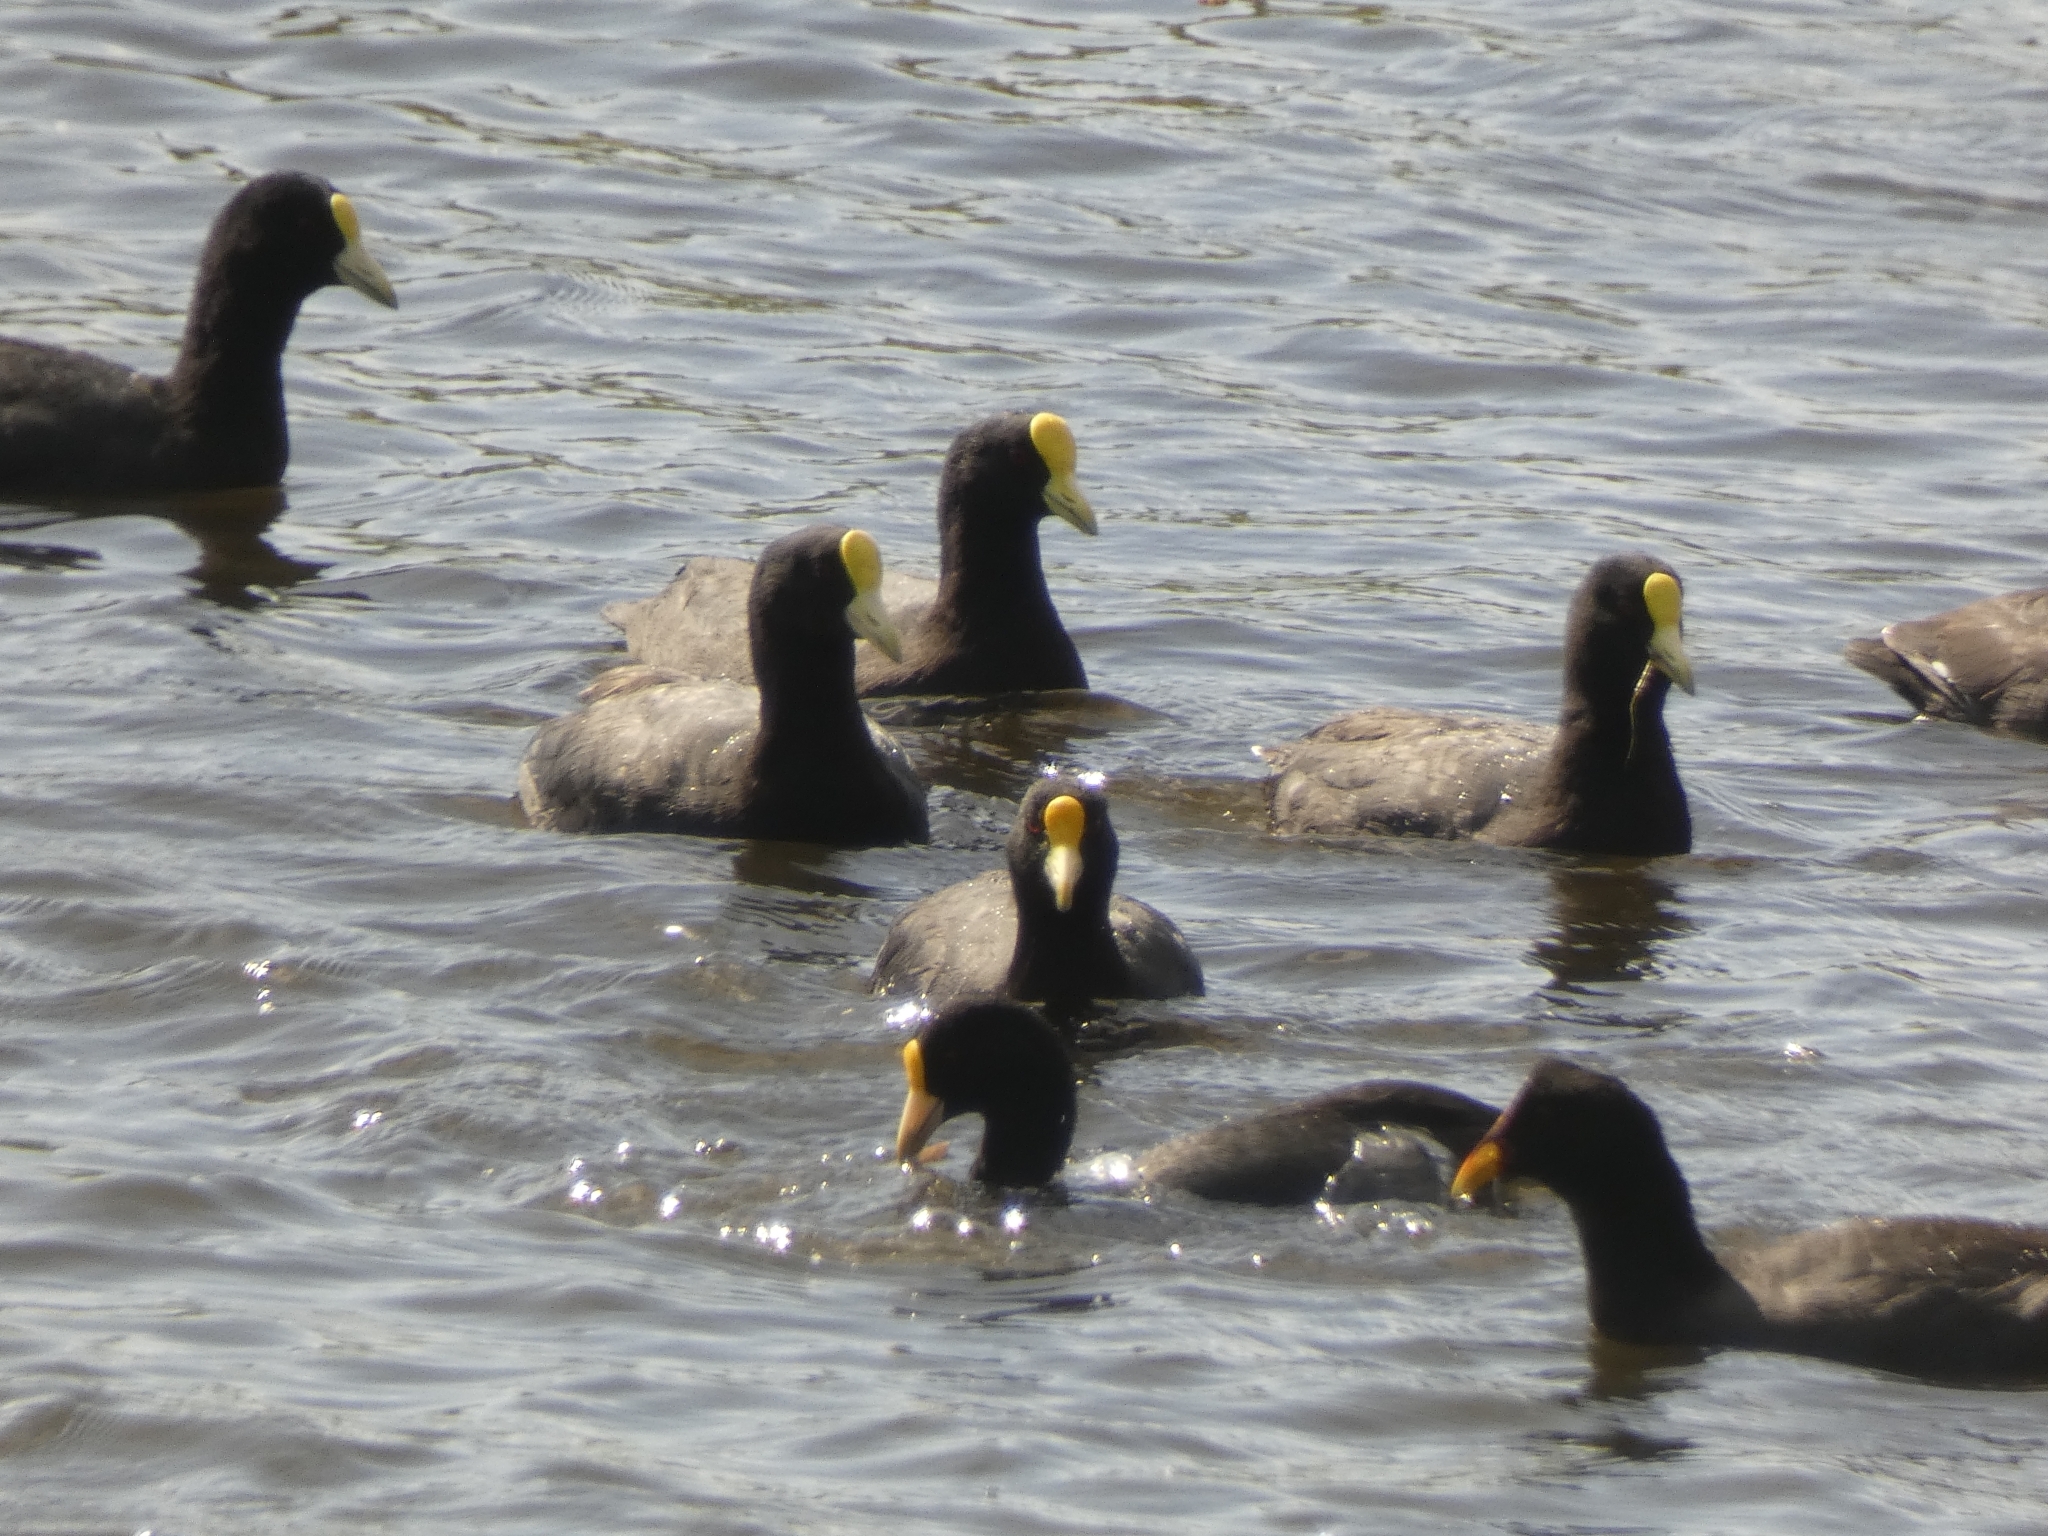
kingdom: Animalia
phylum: Chordata
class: Aves
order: Gruiformes
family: Rallidae
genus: Fulica
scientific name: Fulica leucoptera
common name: White-winged coot
